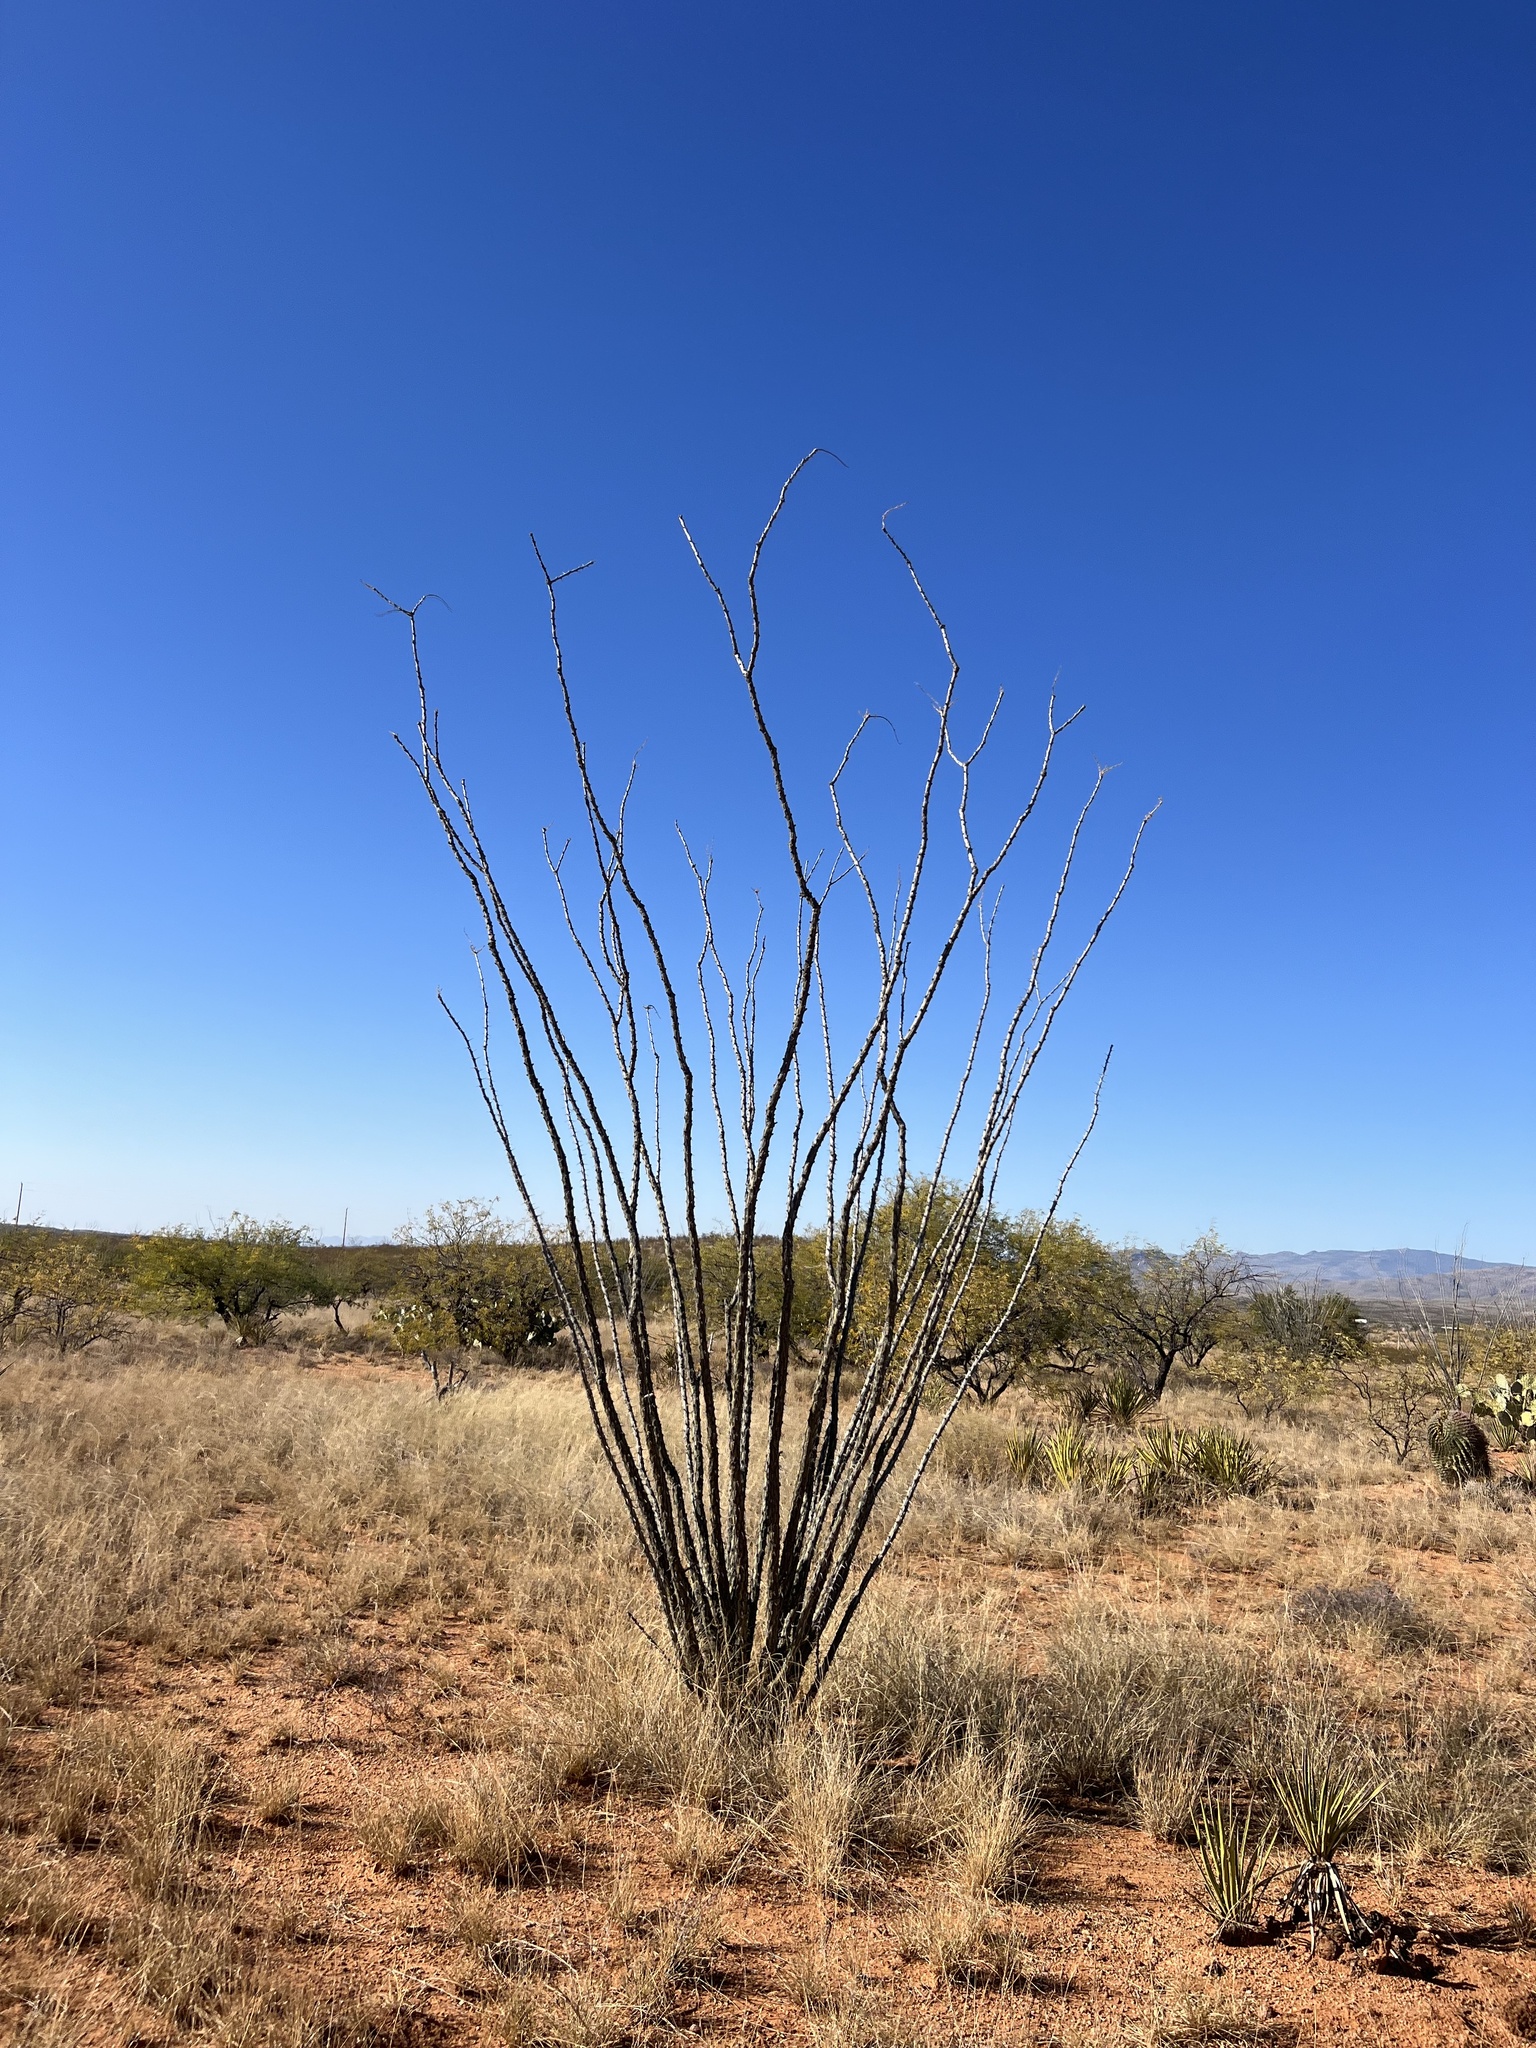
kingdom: Plantae
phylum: Tracheophyta
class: Magnoliopsida
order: Ericales
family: Fouquieriaceae
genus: Fouquieria
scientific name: Fouquieria splendens
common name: Vine-cactus
